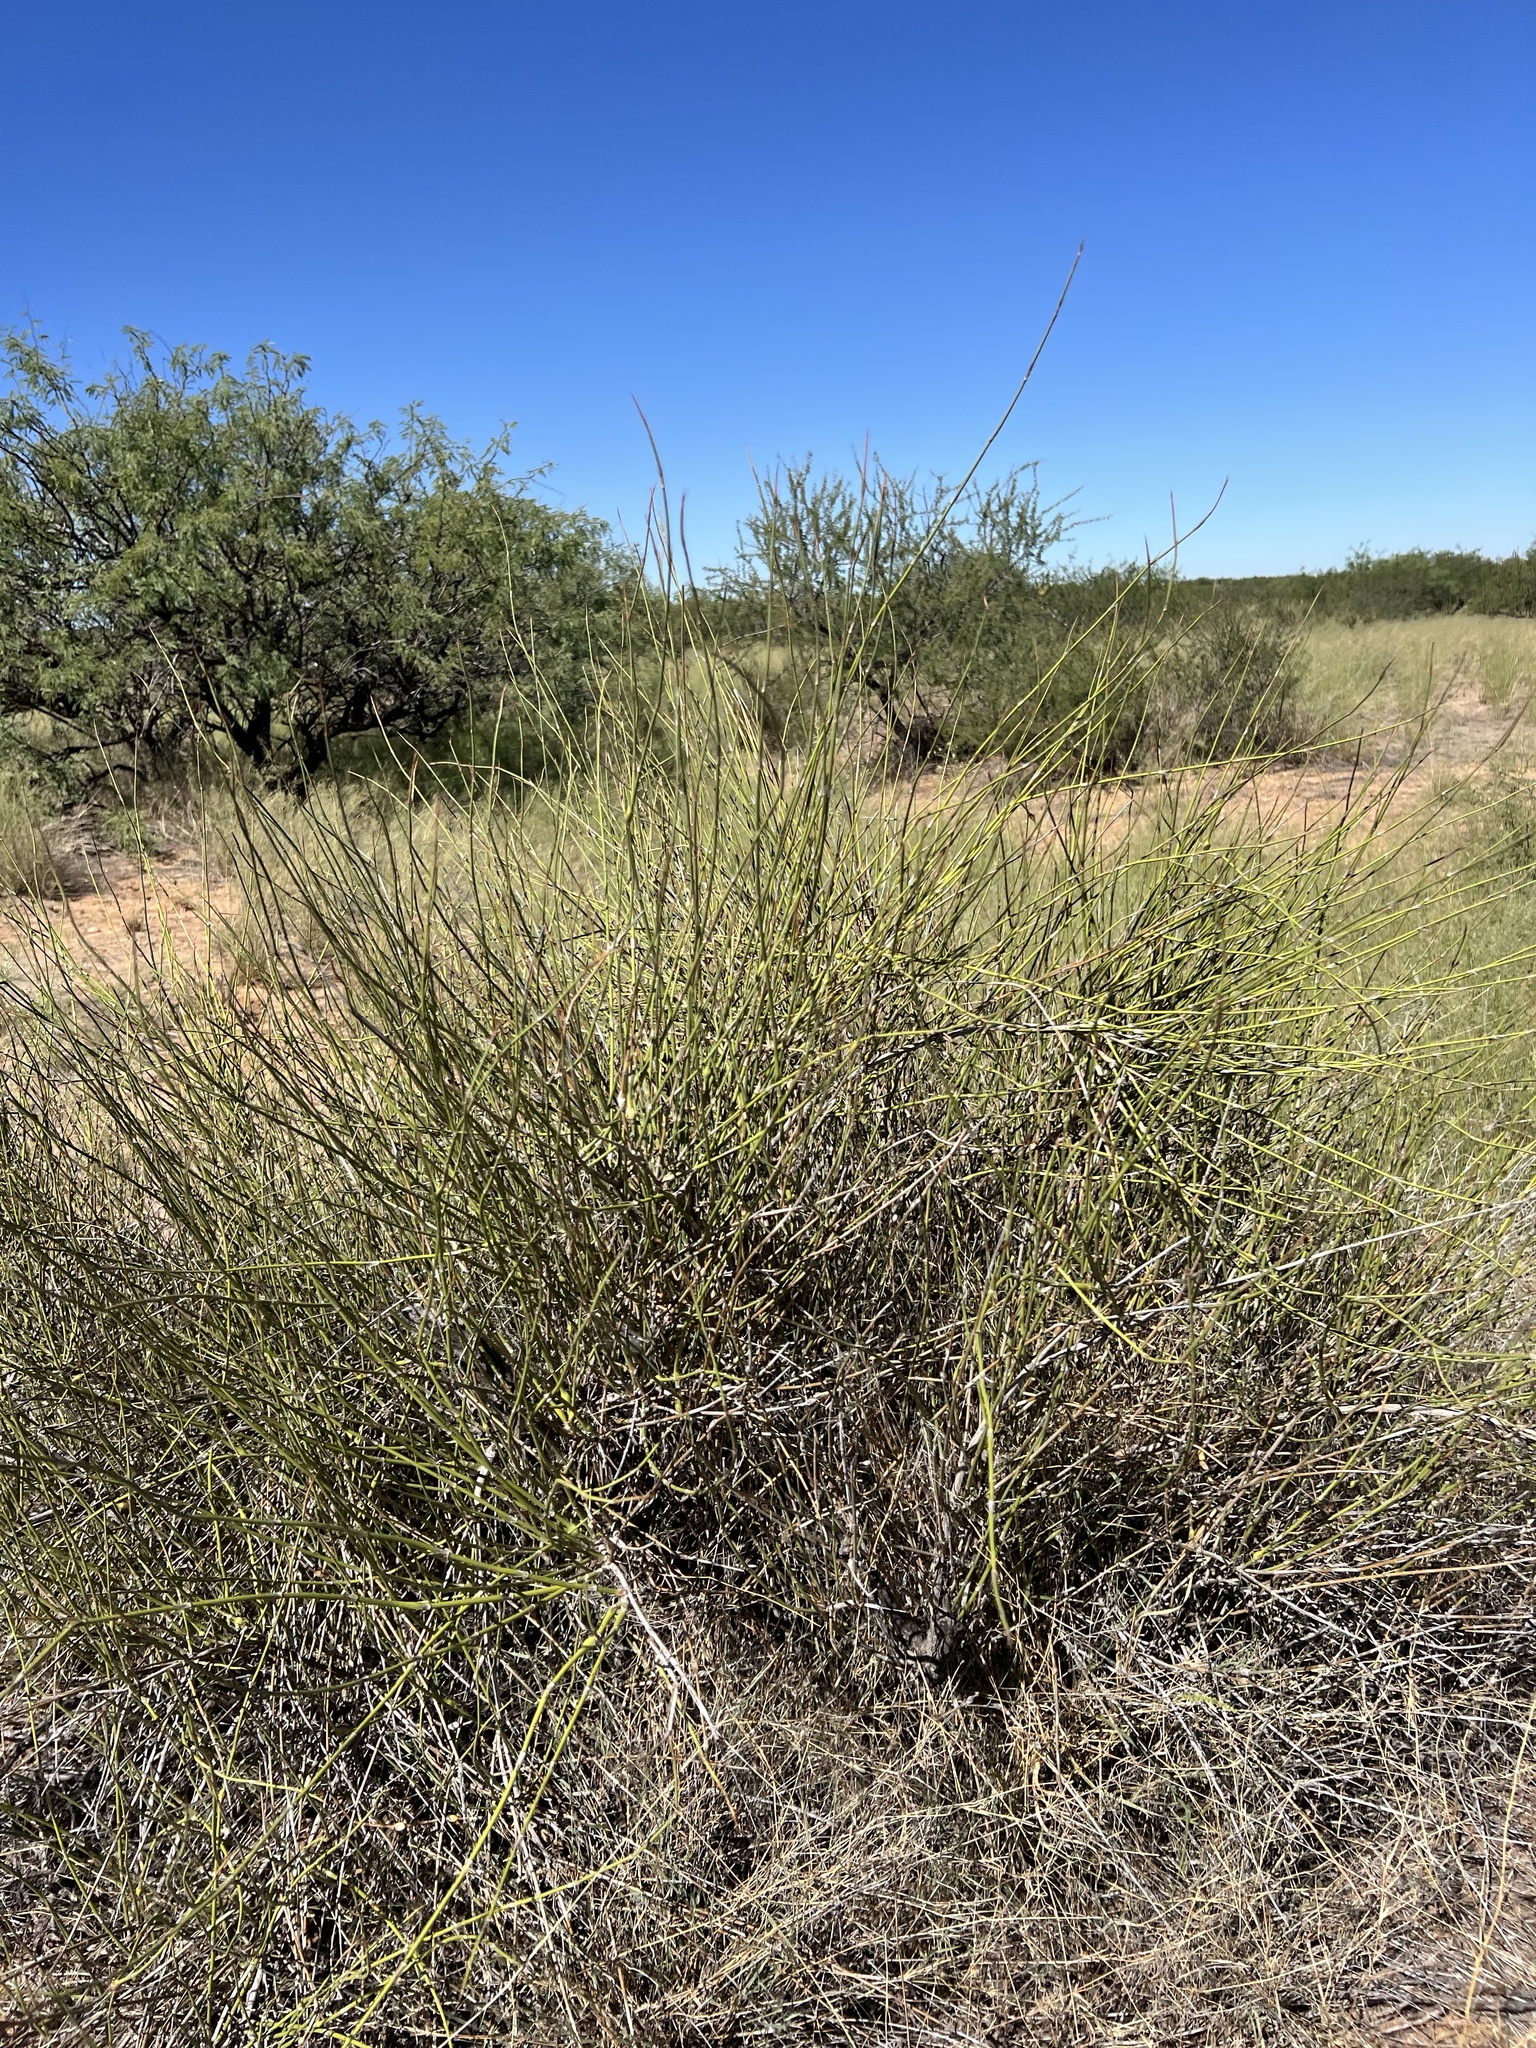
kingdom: Plantae
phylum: Tracheophyta
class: Gnetopsida
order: Ephedrales
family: Ephedraceae
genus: Ephedra
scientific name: Ephedra trifurca
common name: Mexican-tea
